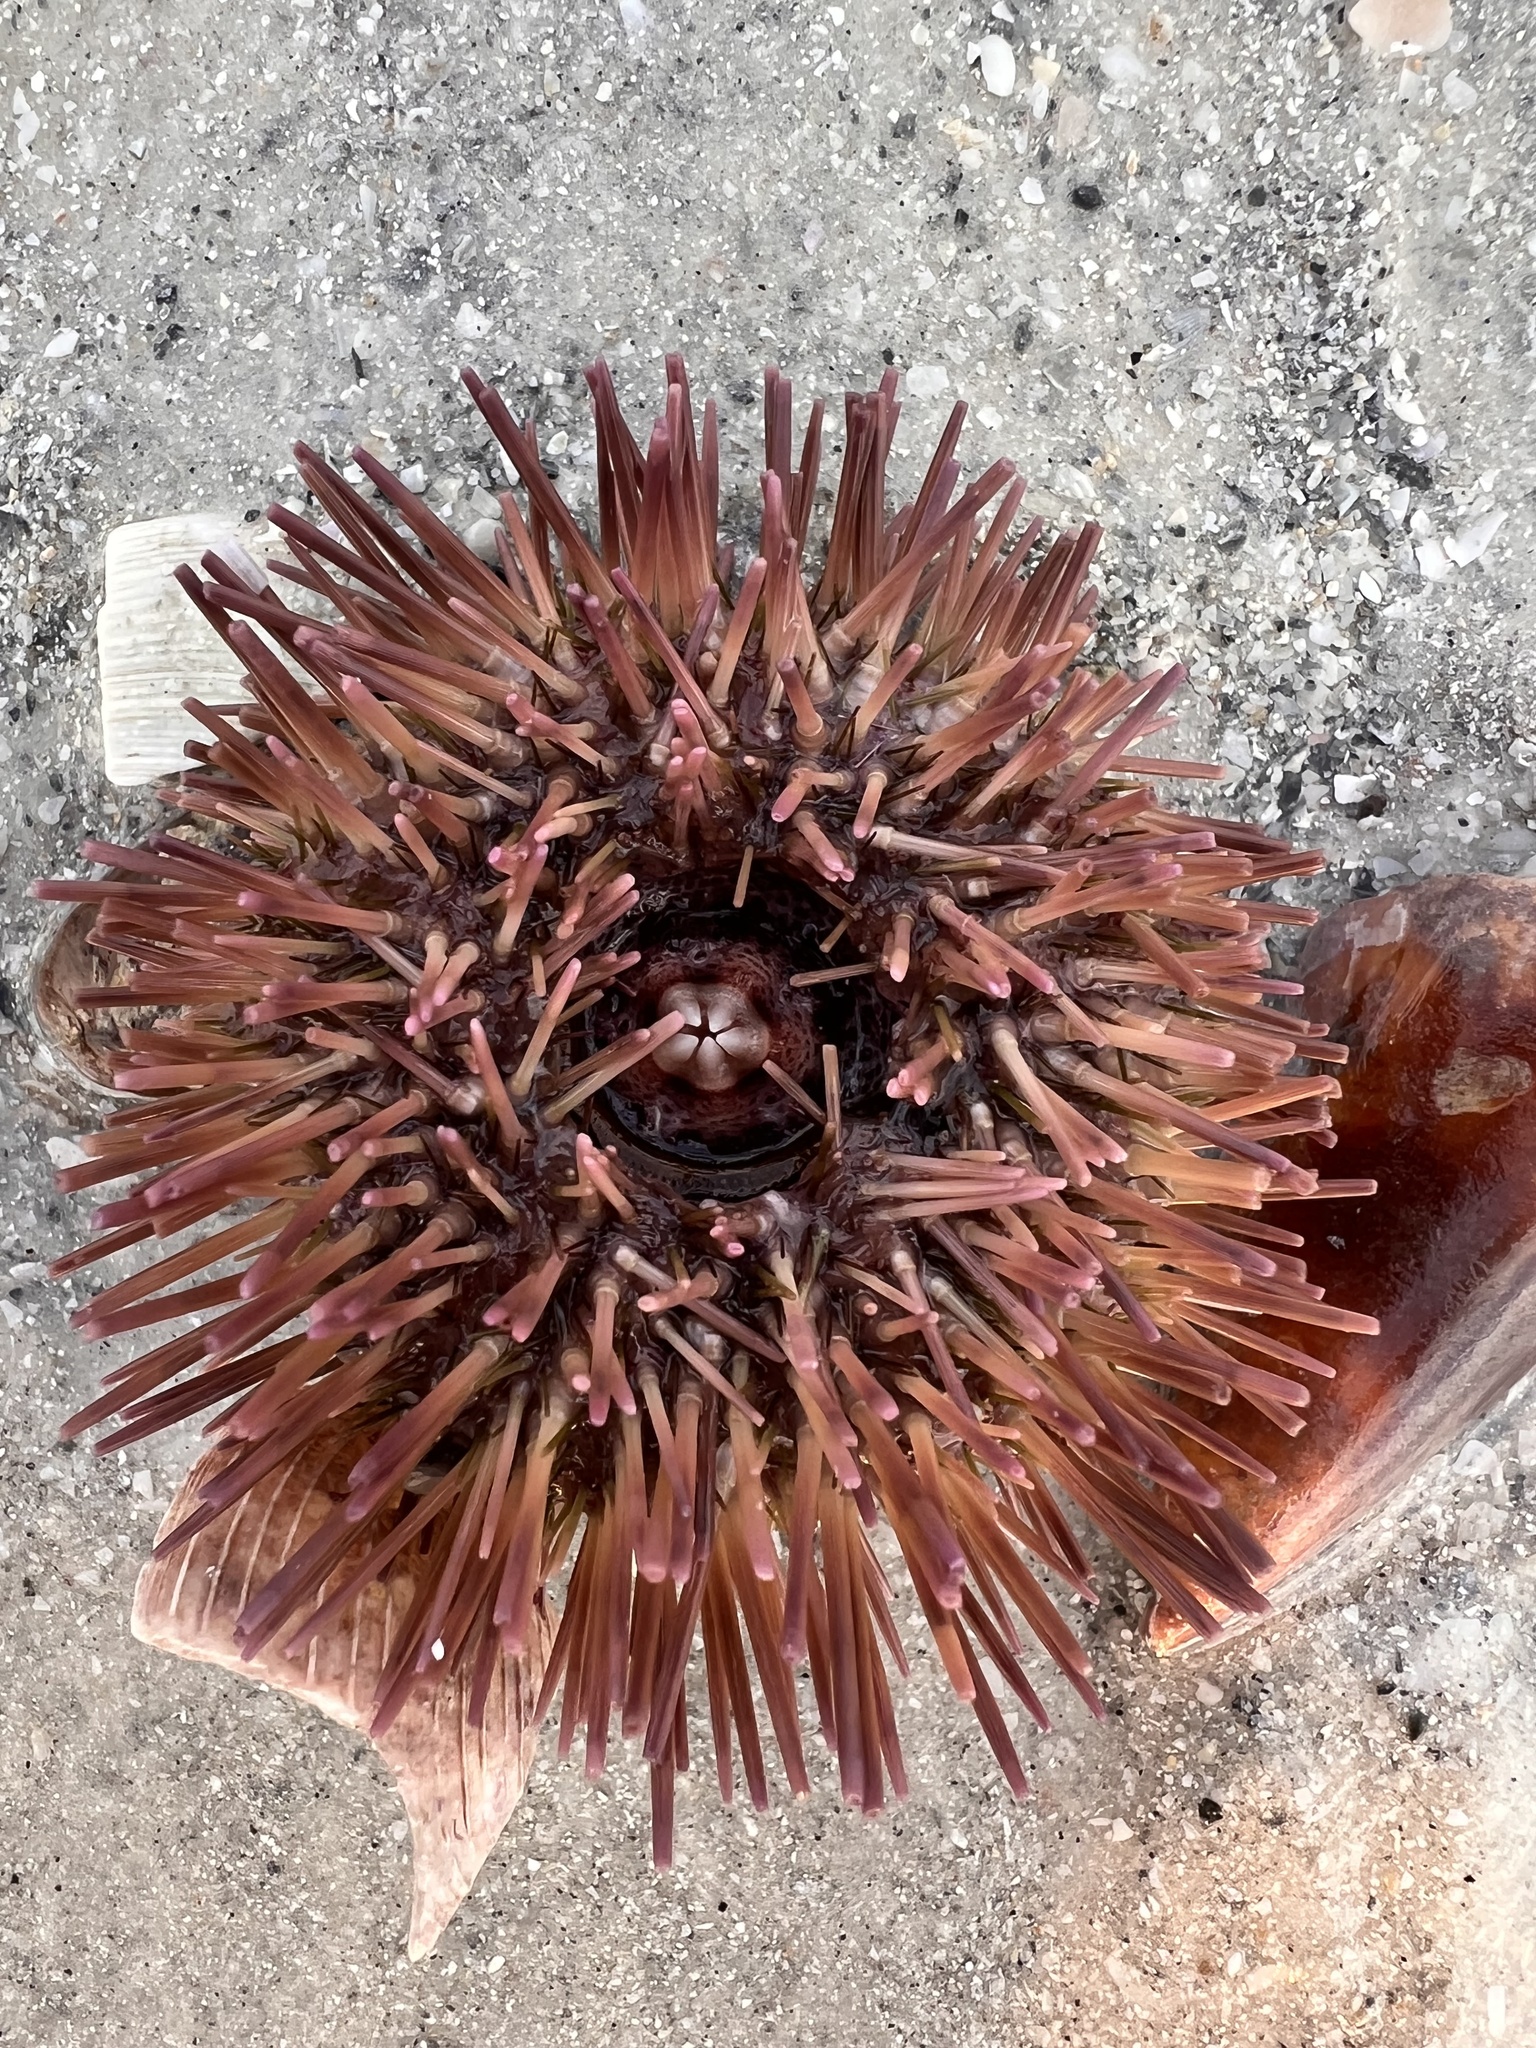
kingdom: Animalia
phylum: Echinodermata
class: Echinoidea
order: Camarodonta
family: Toxopneustidae
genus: Lytechinus
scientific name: Lytechinus variegatus
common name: Variegated urchin
